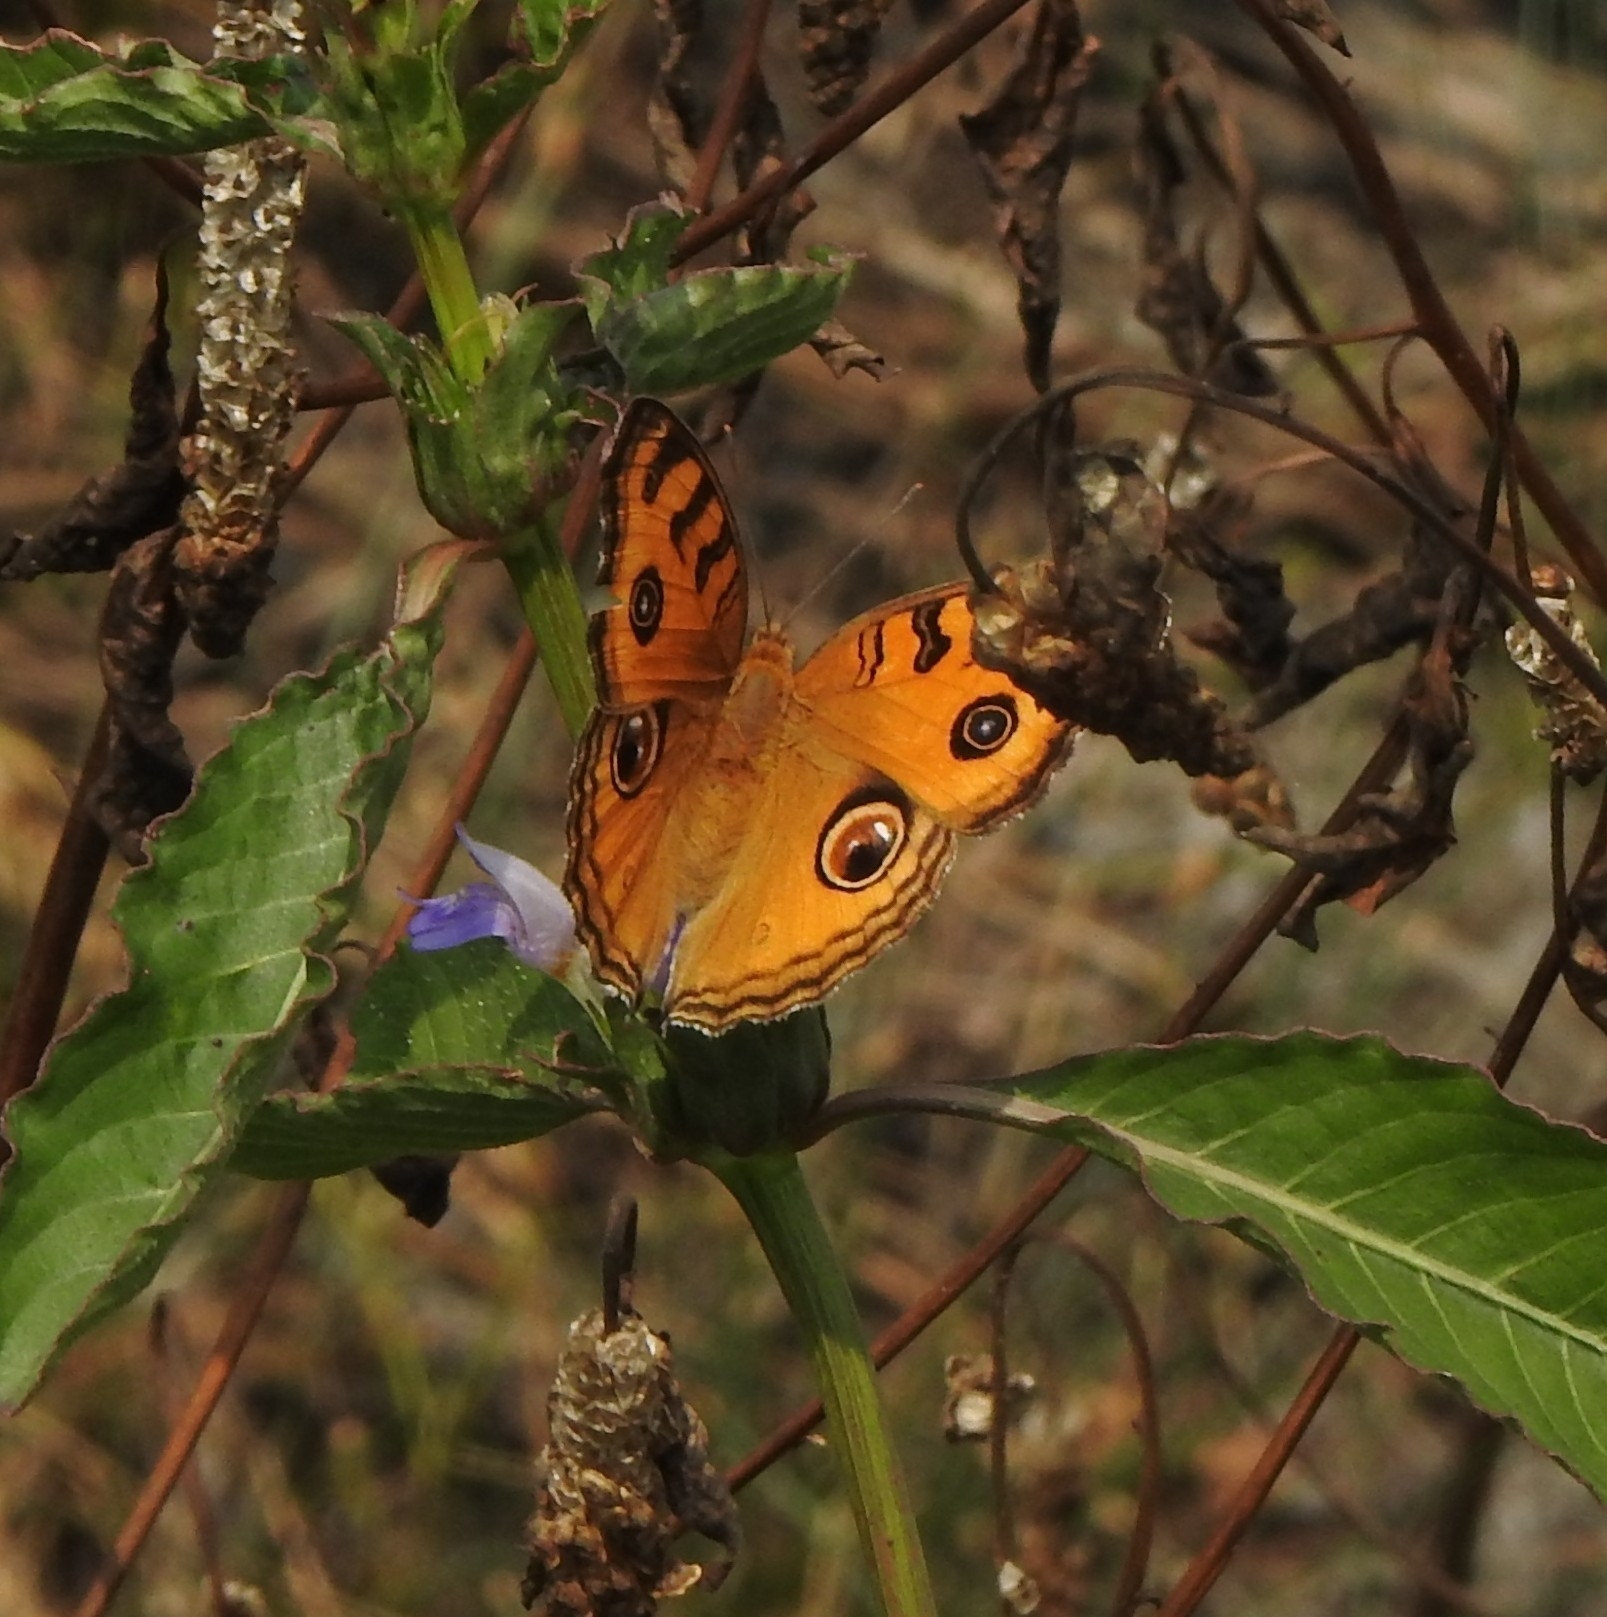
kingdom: Animalia
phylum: Arthropoda
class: Insecta
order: Lepidoptera
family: Nymphalidae
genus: Junonia
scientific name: Junonia almana
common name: Peacock pansy
